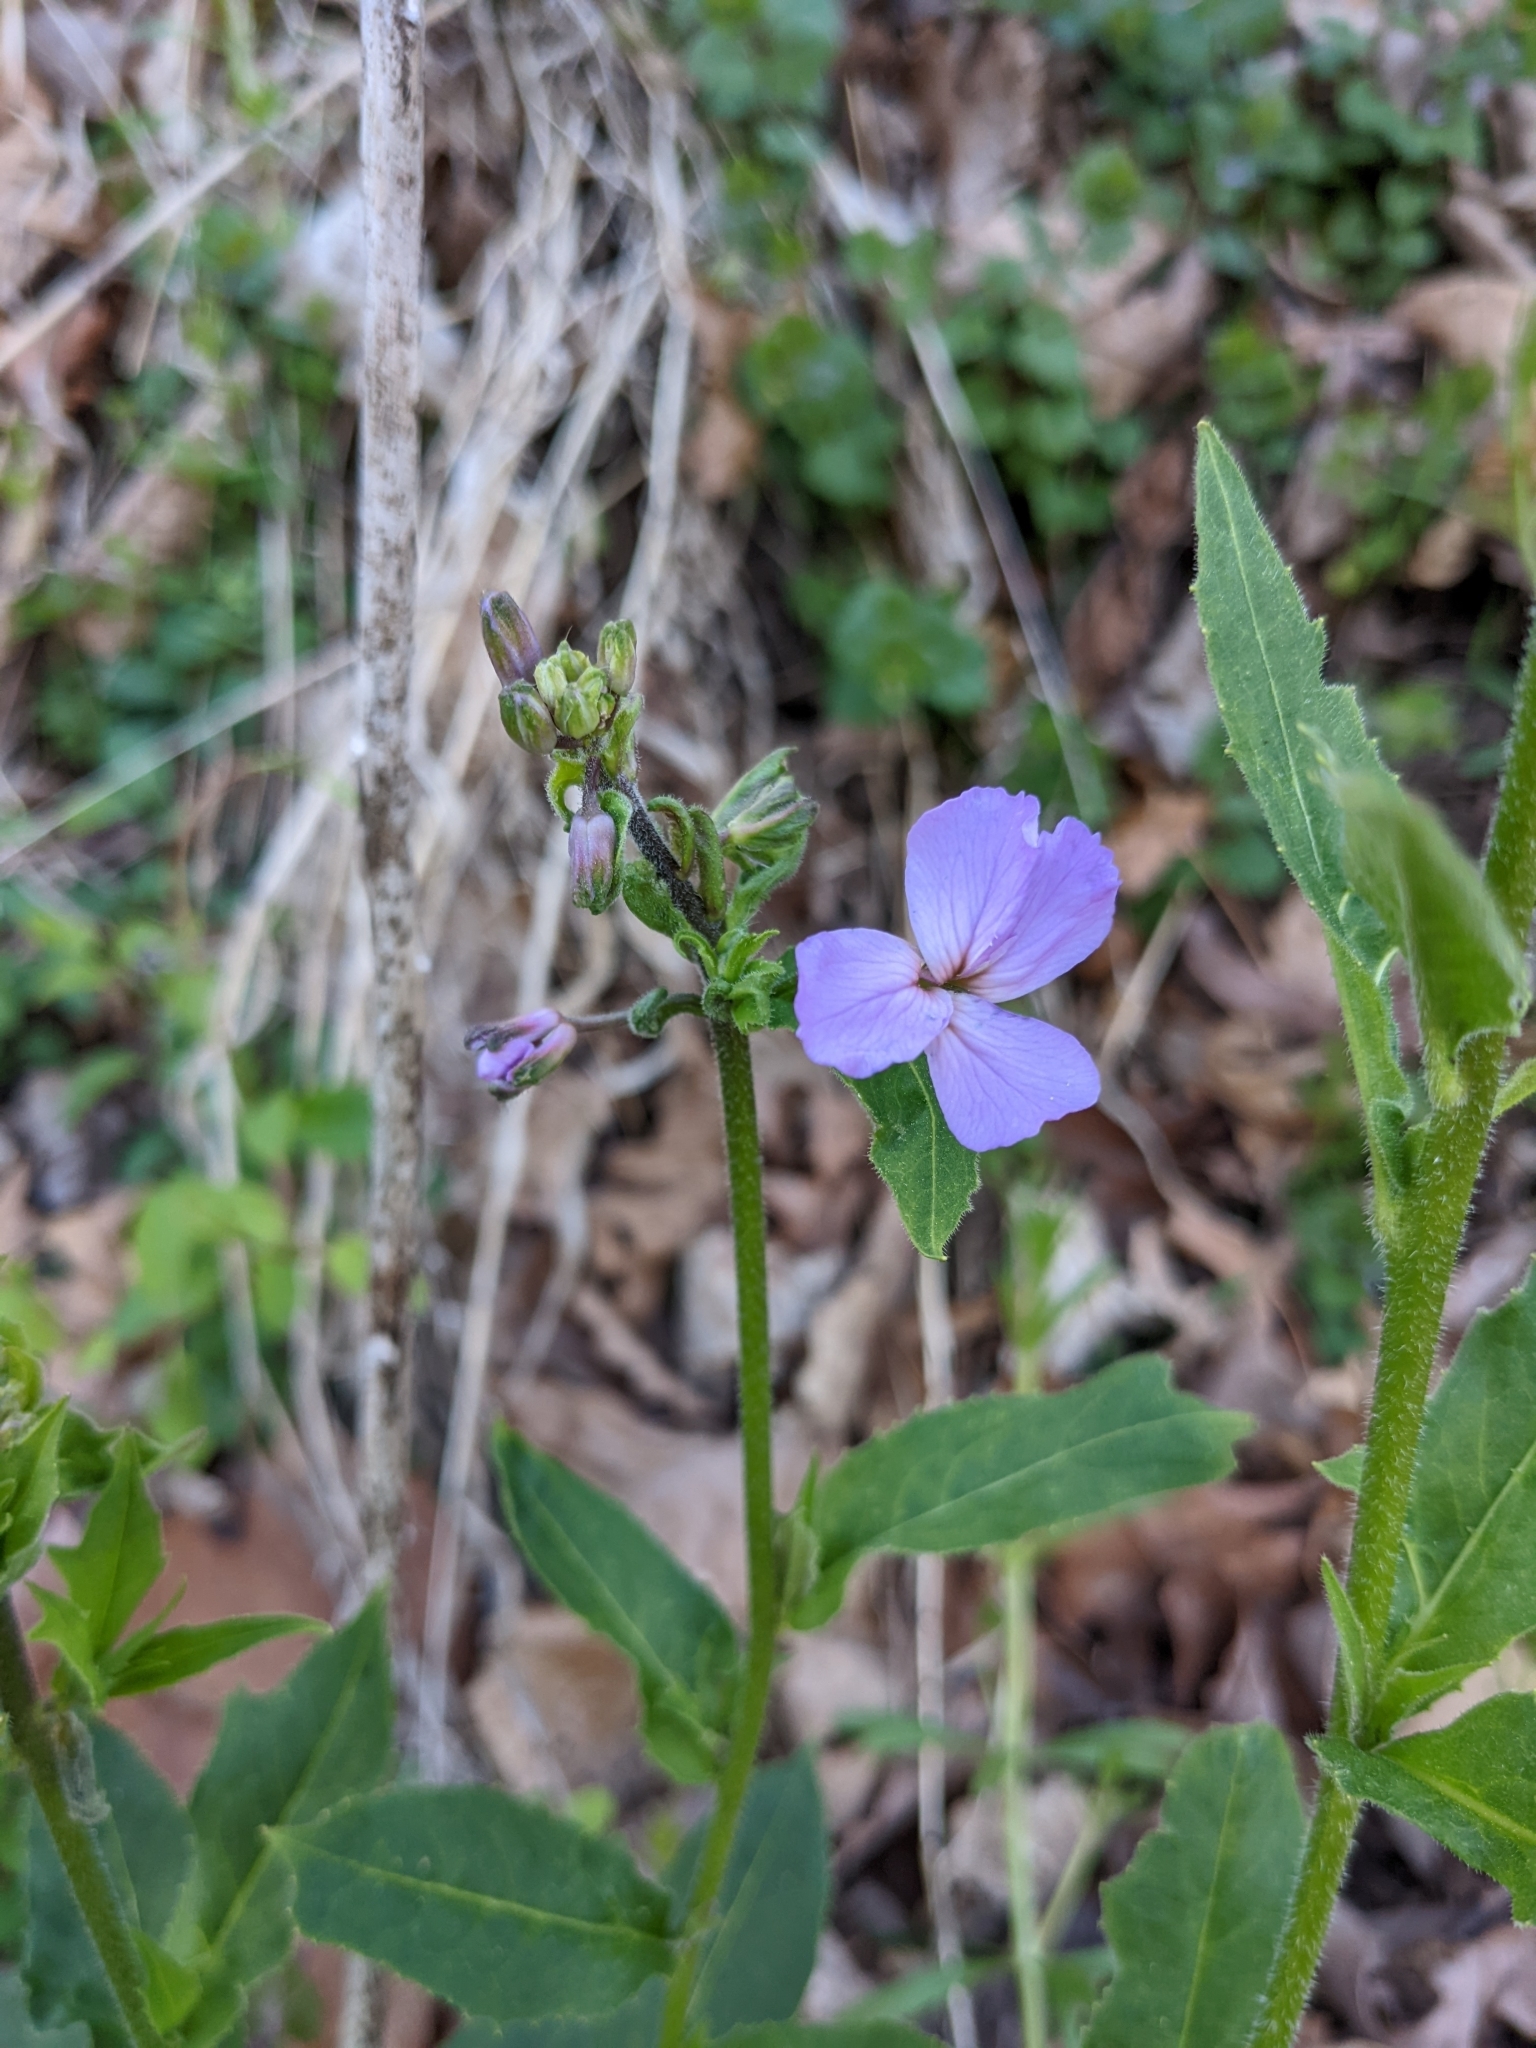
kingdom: Plantae
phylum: Tracheophyta
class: Magnoliopsida
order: Brassicales
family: Brassicaceae
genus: Hesperis
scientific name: Hesperis matronalis
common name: Dame's-violet
